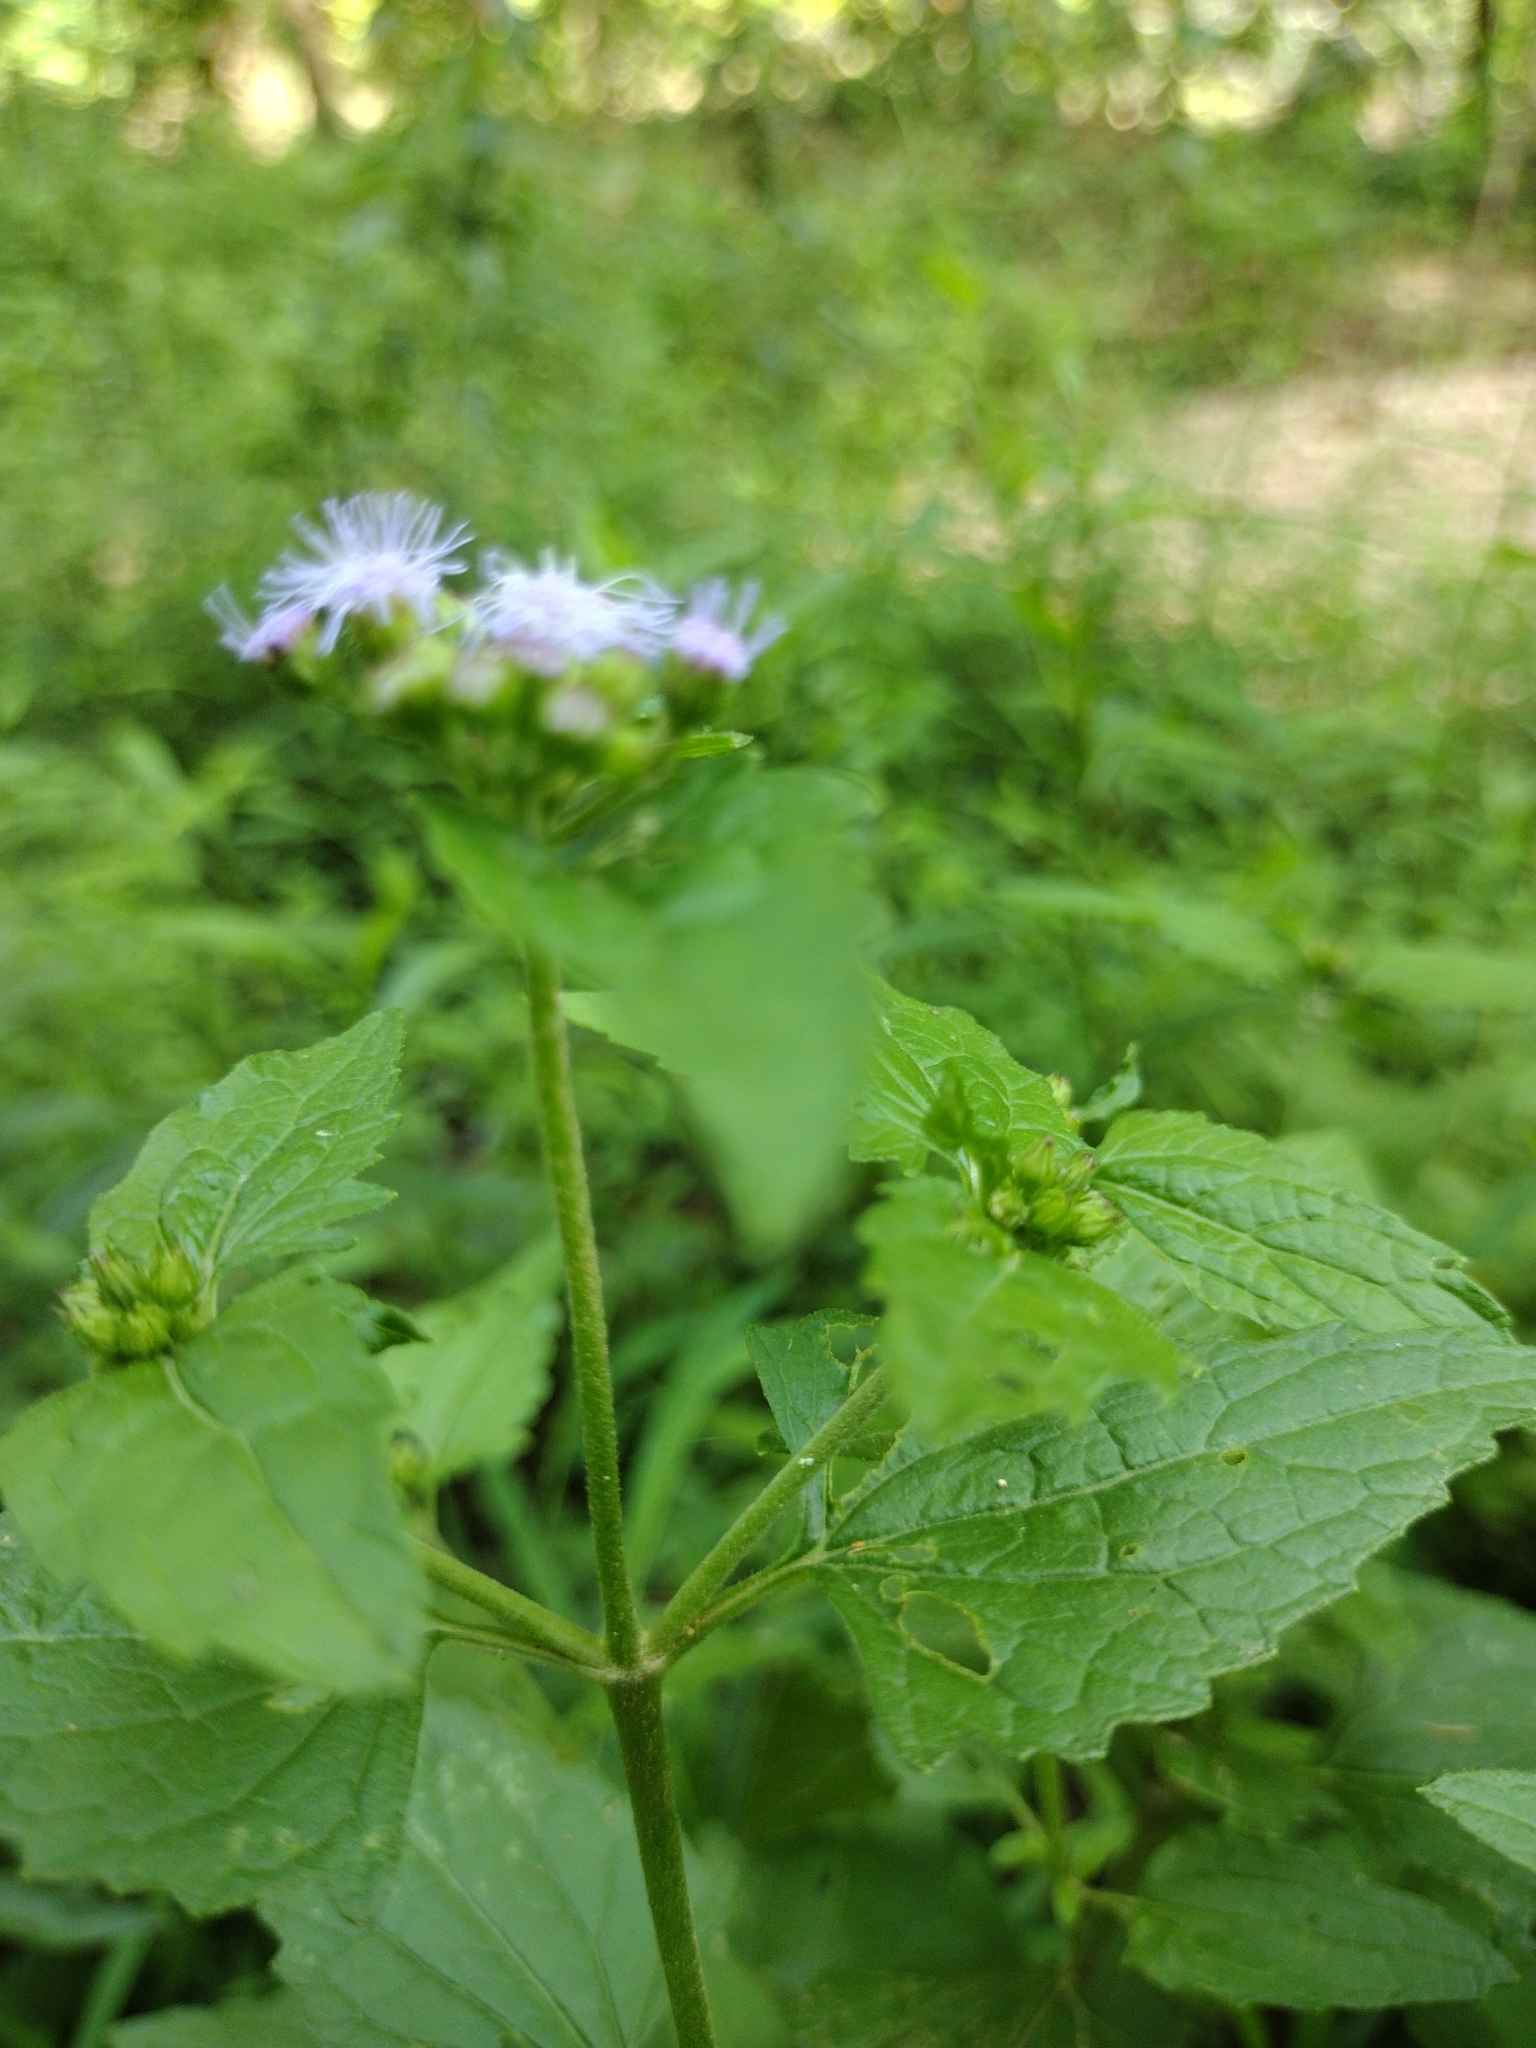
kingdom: Plantae
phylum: Tracheophyta
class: Magnoliopsida
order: Asterales
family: Asteraceae
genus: Conoclinium
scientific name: Conoclinium coelestinum
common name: Blue mistflower
